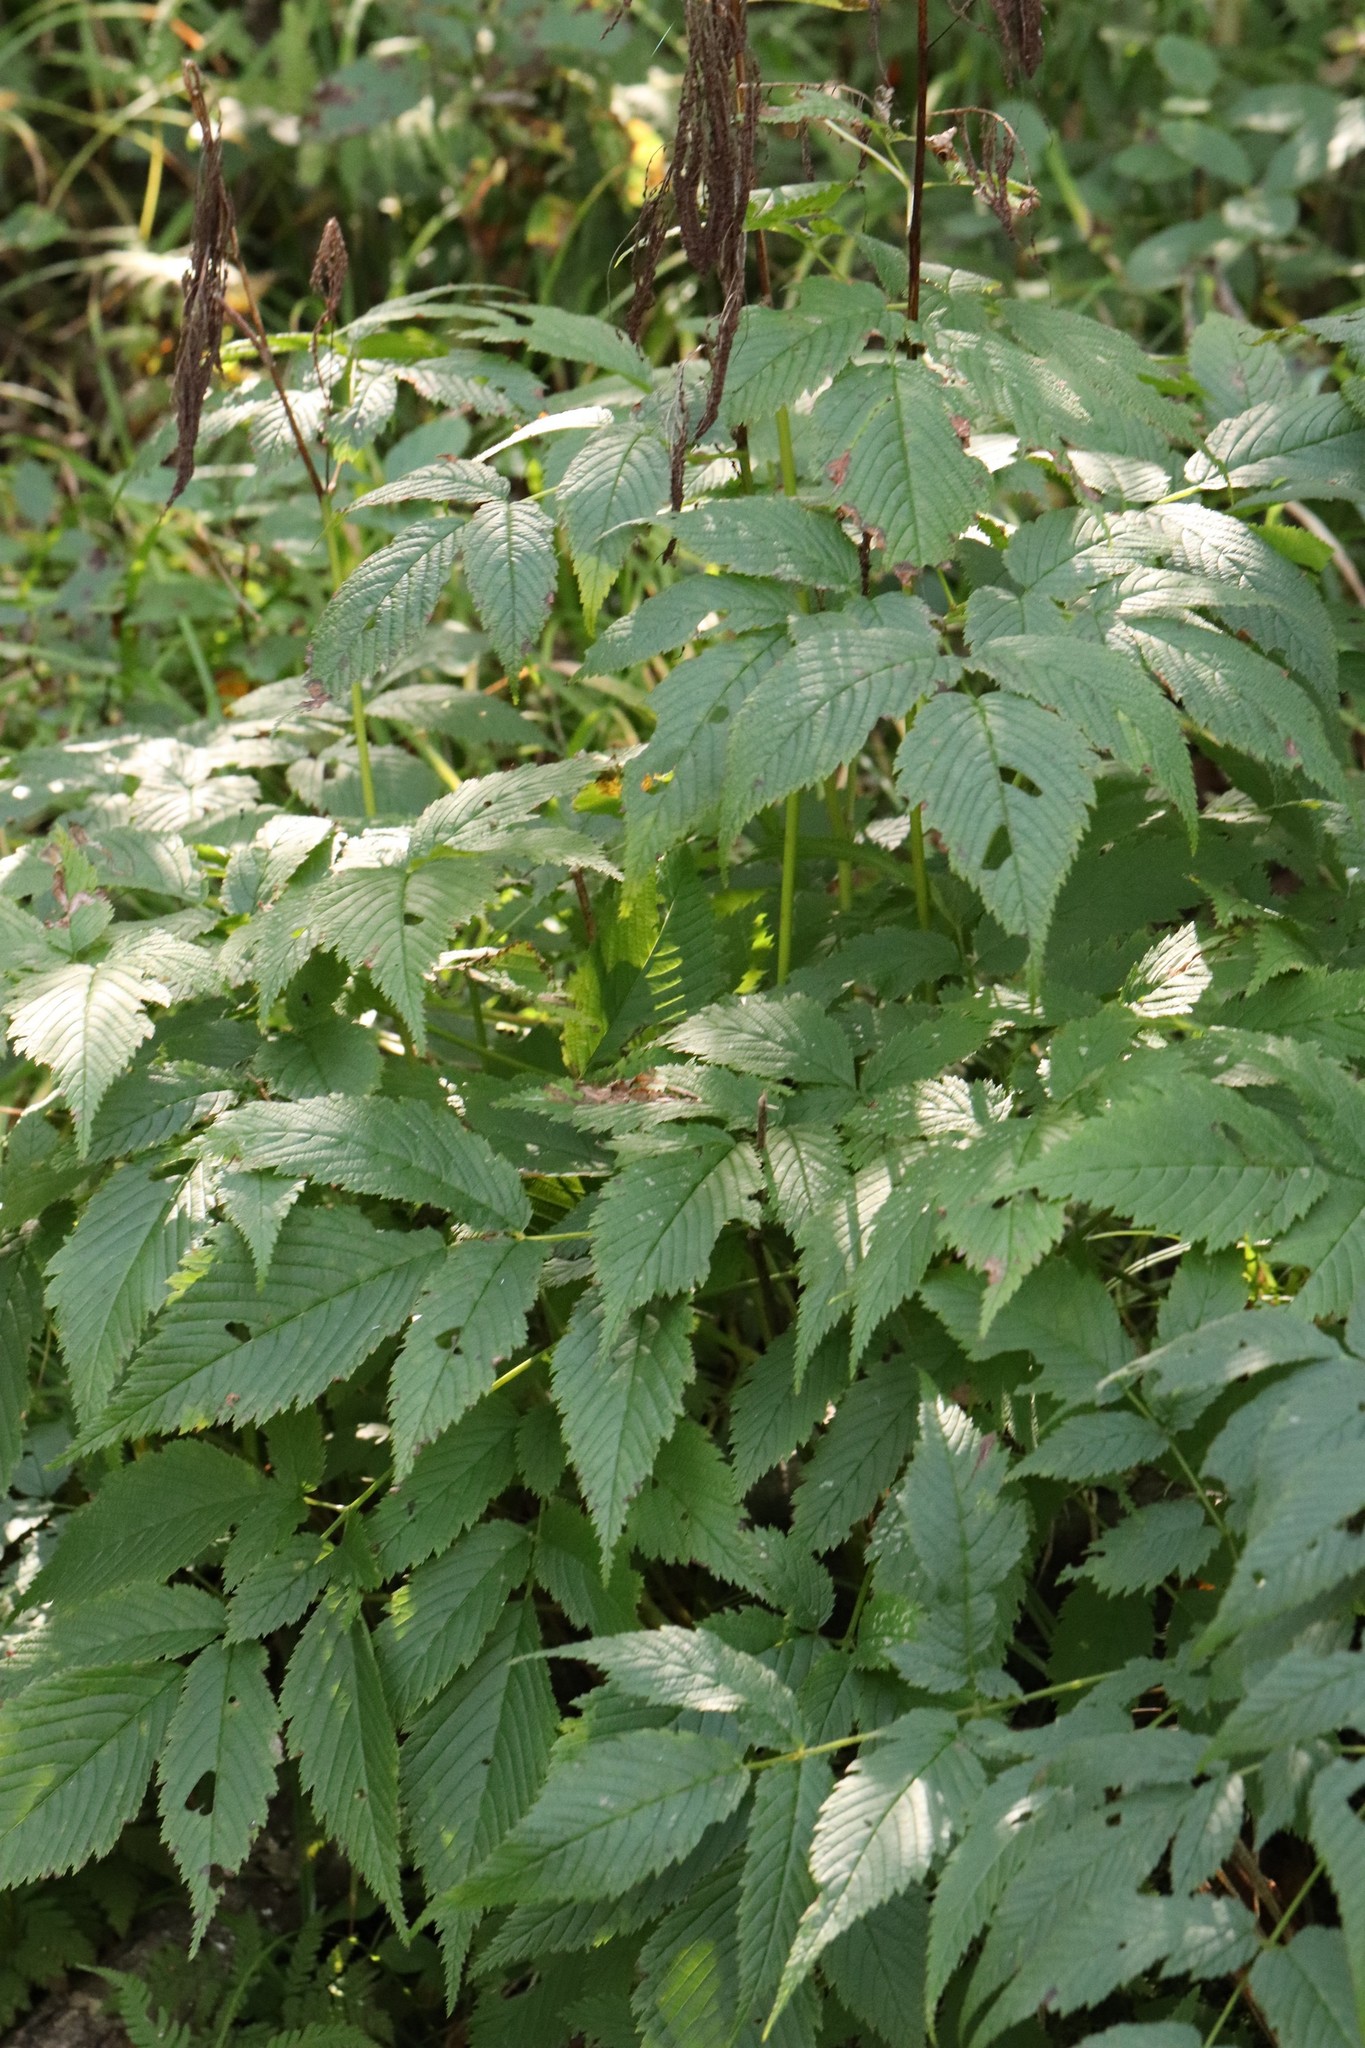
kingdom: Plantae
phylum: Tracheophyta
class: Magnoliopsida
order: Rosales
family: Rosaceae
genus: Aruncus
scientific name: Aruncus dioicus
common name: Buck's-beard
